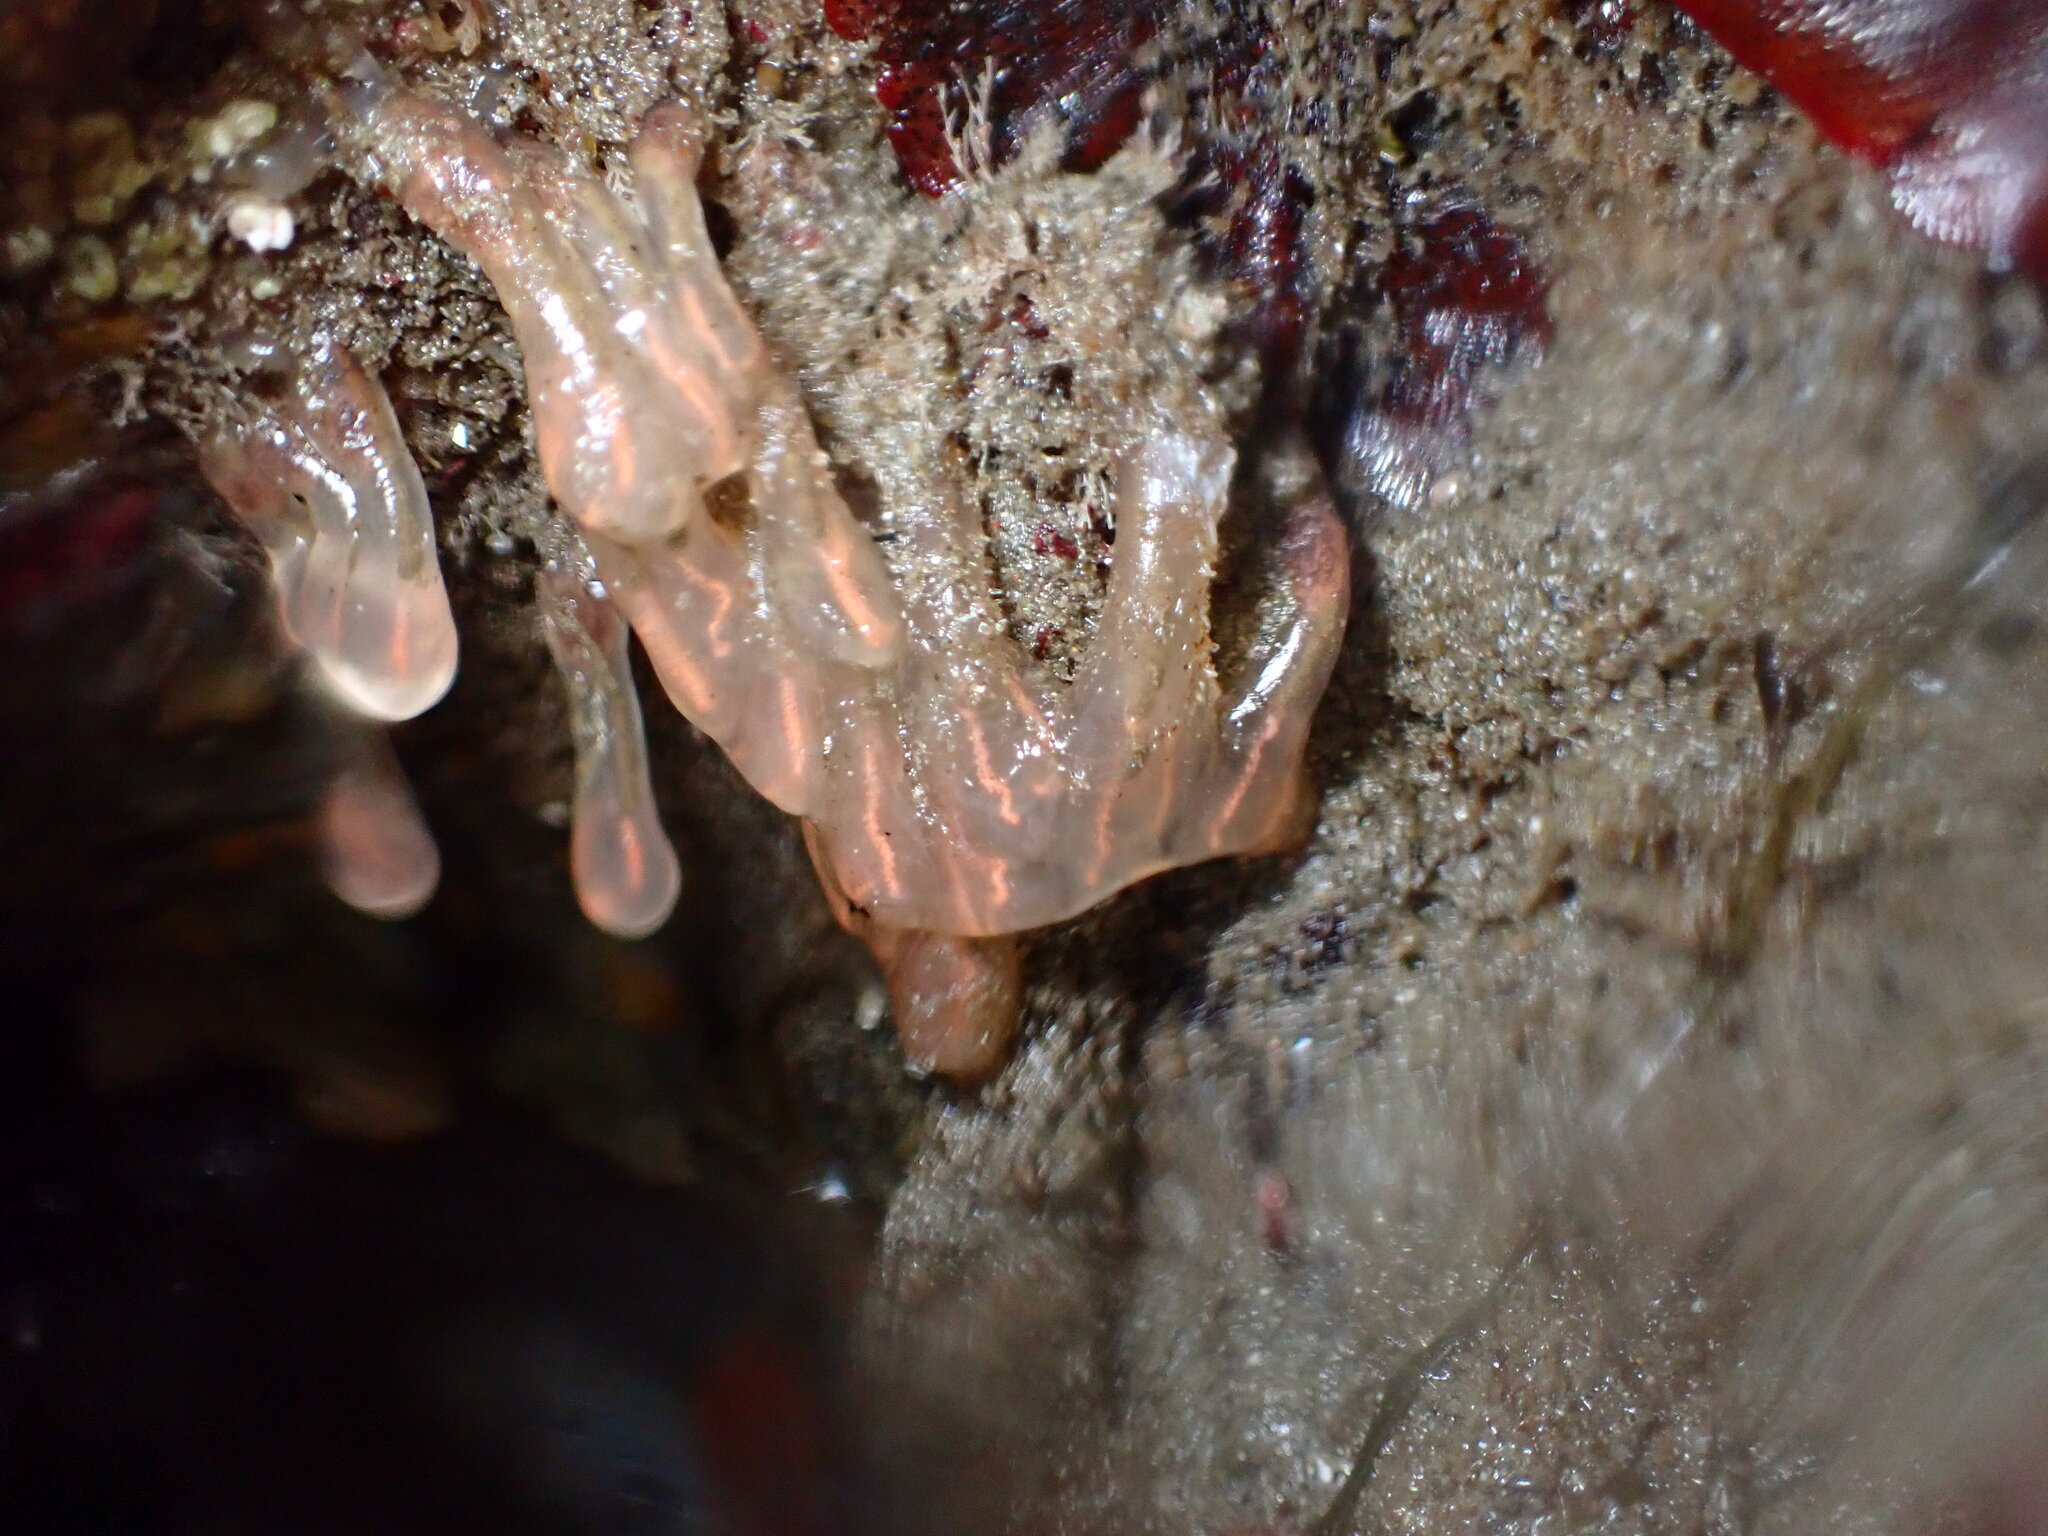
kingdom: Animalia
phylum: Chordata
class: Ascidiacea
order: Aplousobranchia
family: Clavelinidae
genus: Clavelina
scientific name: Clavelina huntsmani
